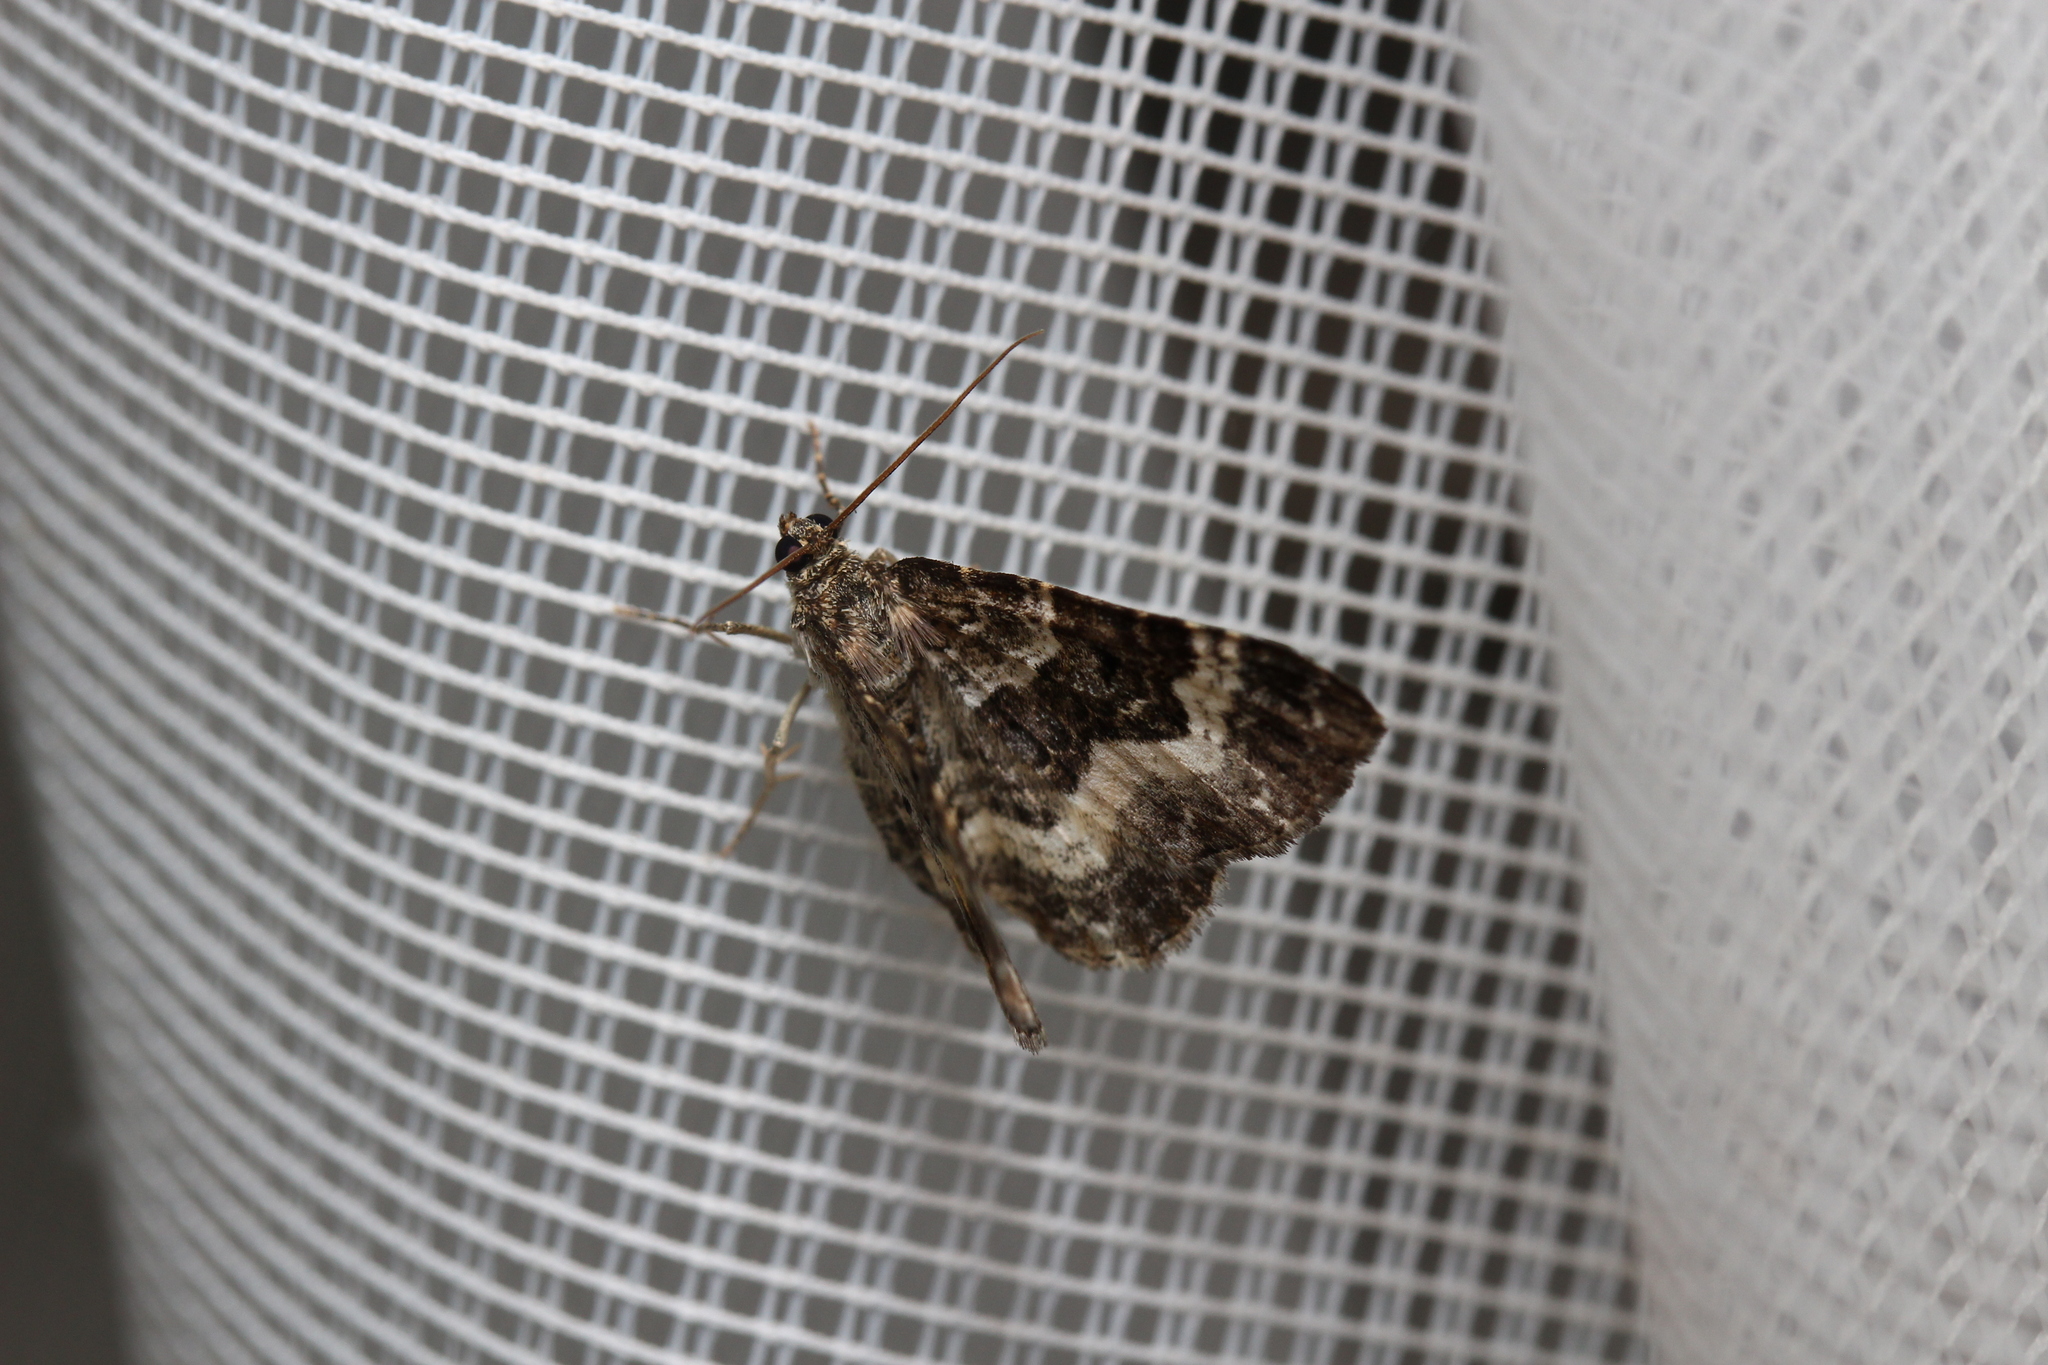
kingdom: Animalia
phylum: Arthropoda
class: Insecta
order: Lepidoptera
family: Geometridae
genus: Epirrhoe
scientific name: Epirrhoe alternata
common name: Common carpet
